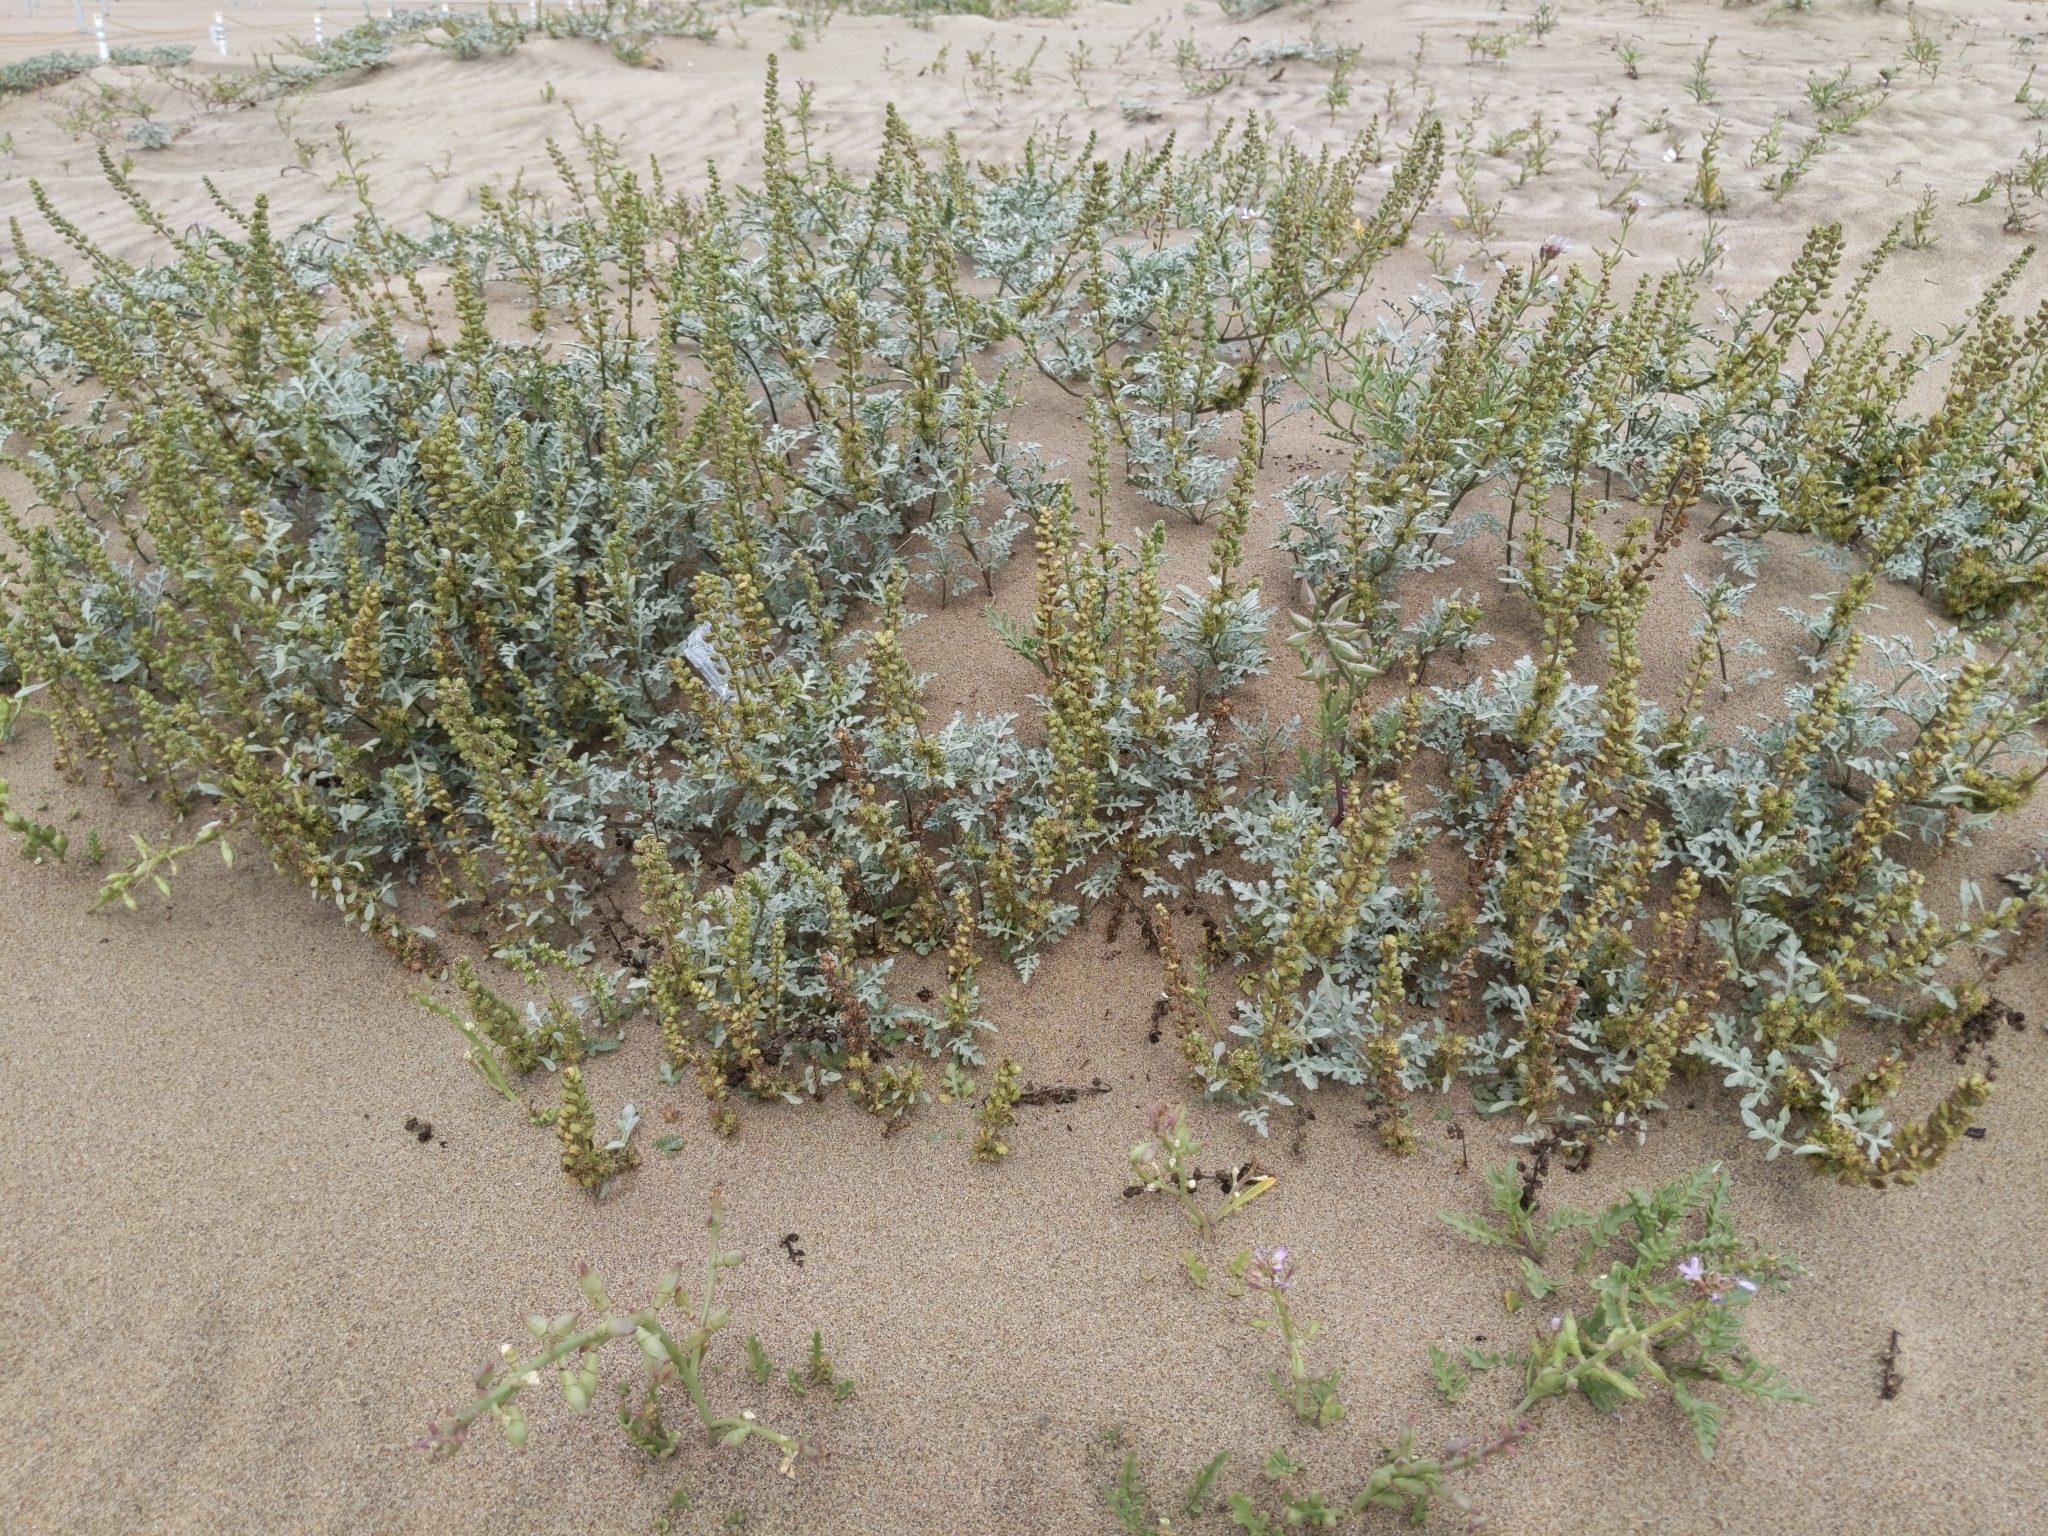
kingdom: Plantae
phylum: Tracheophyta
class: Magnoliopsida
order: Asterales
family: Asteraceae
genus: Ambrosia
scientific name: Ambrosia chamissonis
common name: Beachbur
